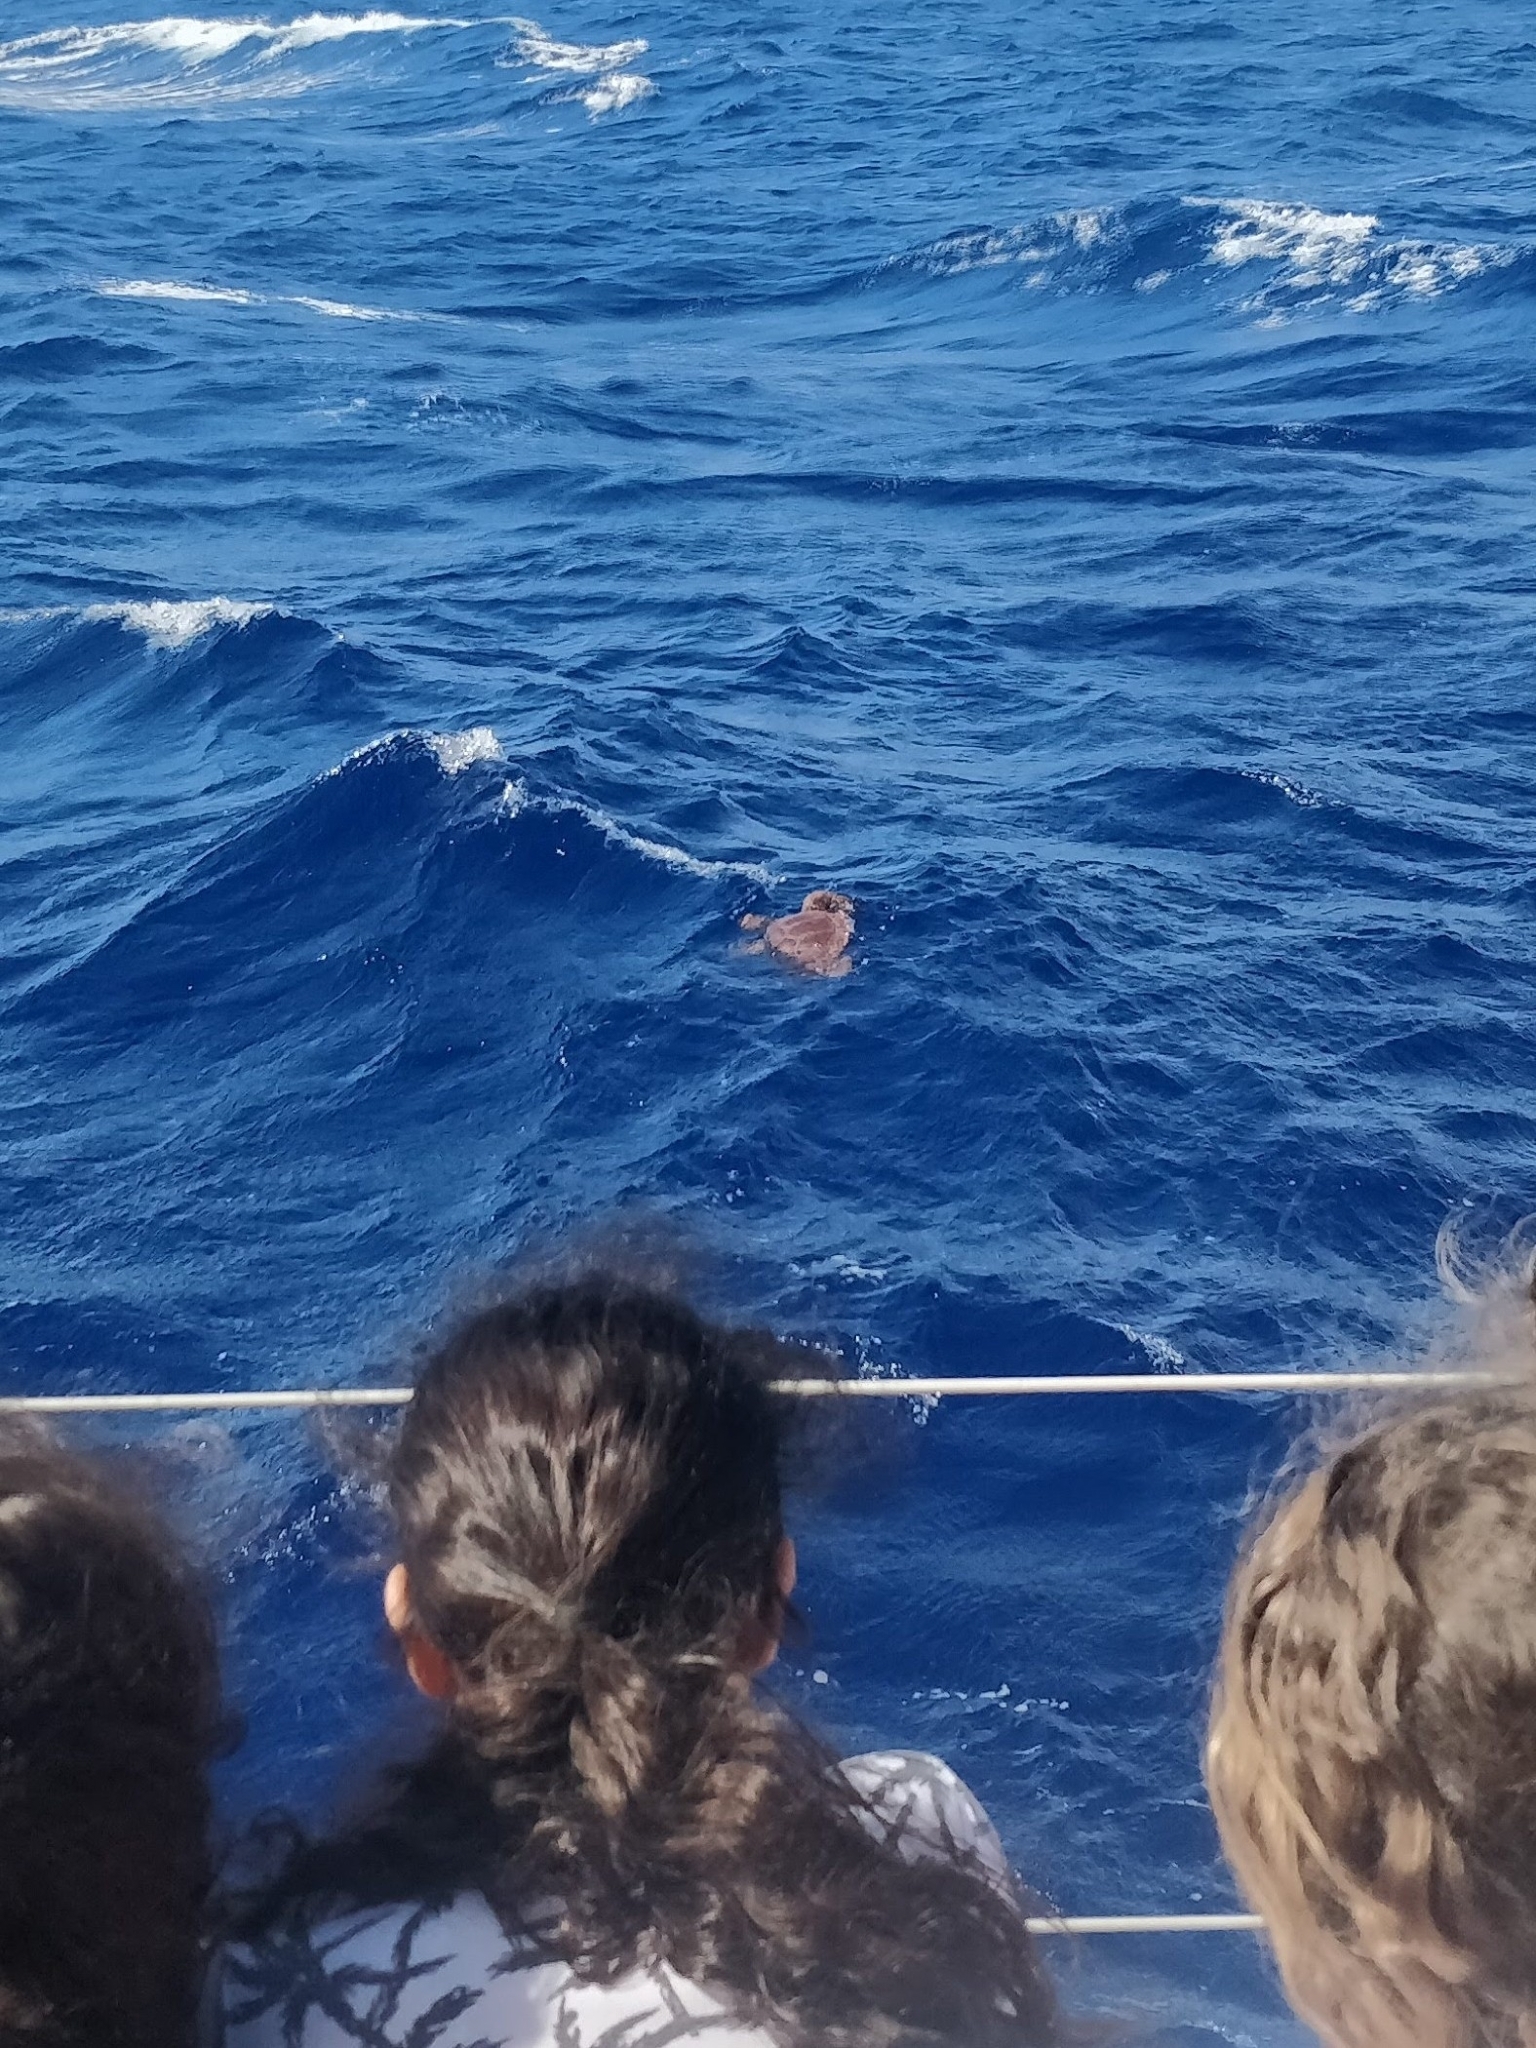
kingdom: Animalia
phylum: Chordata
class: Testudines
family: Cheloniidae
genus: Caretta
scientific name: Caretta caretta
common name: Loggerhead sea turtle
